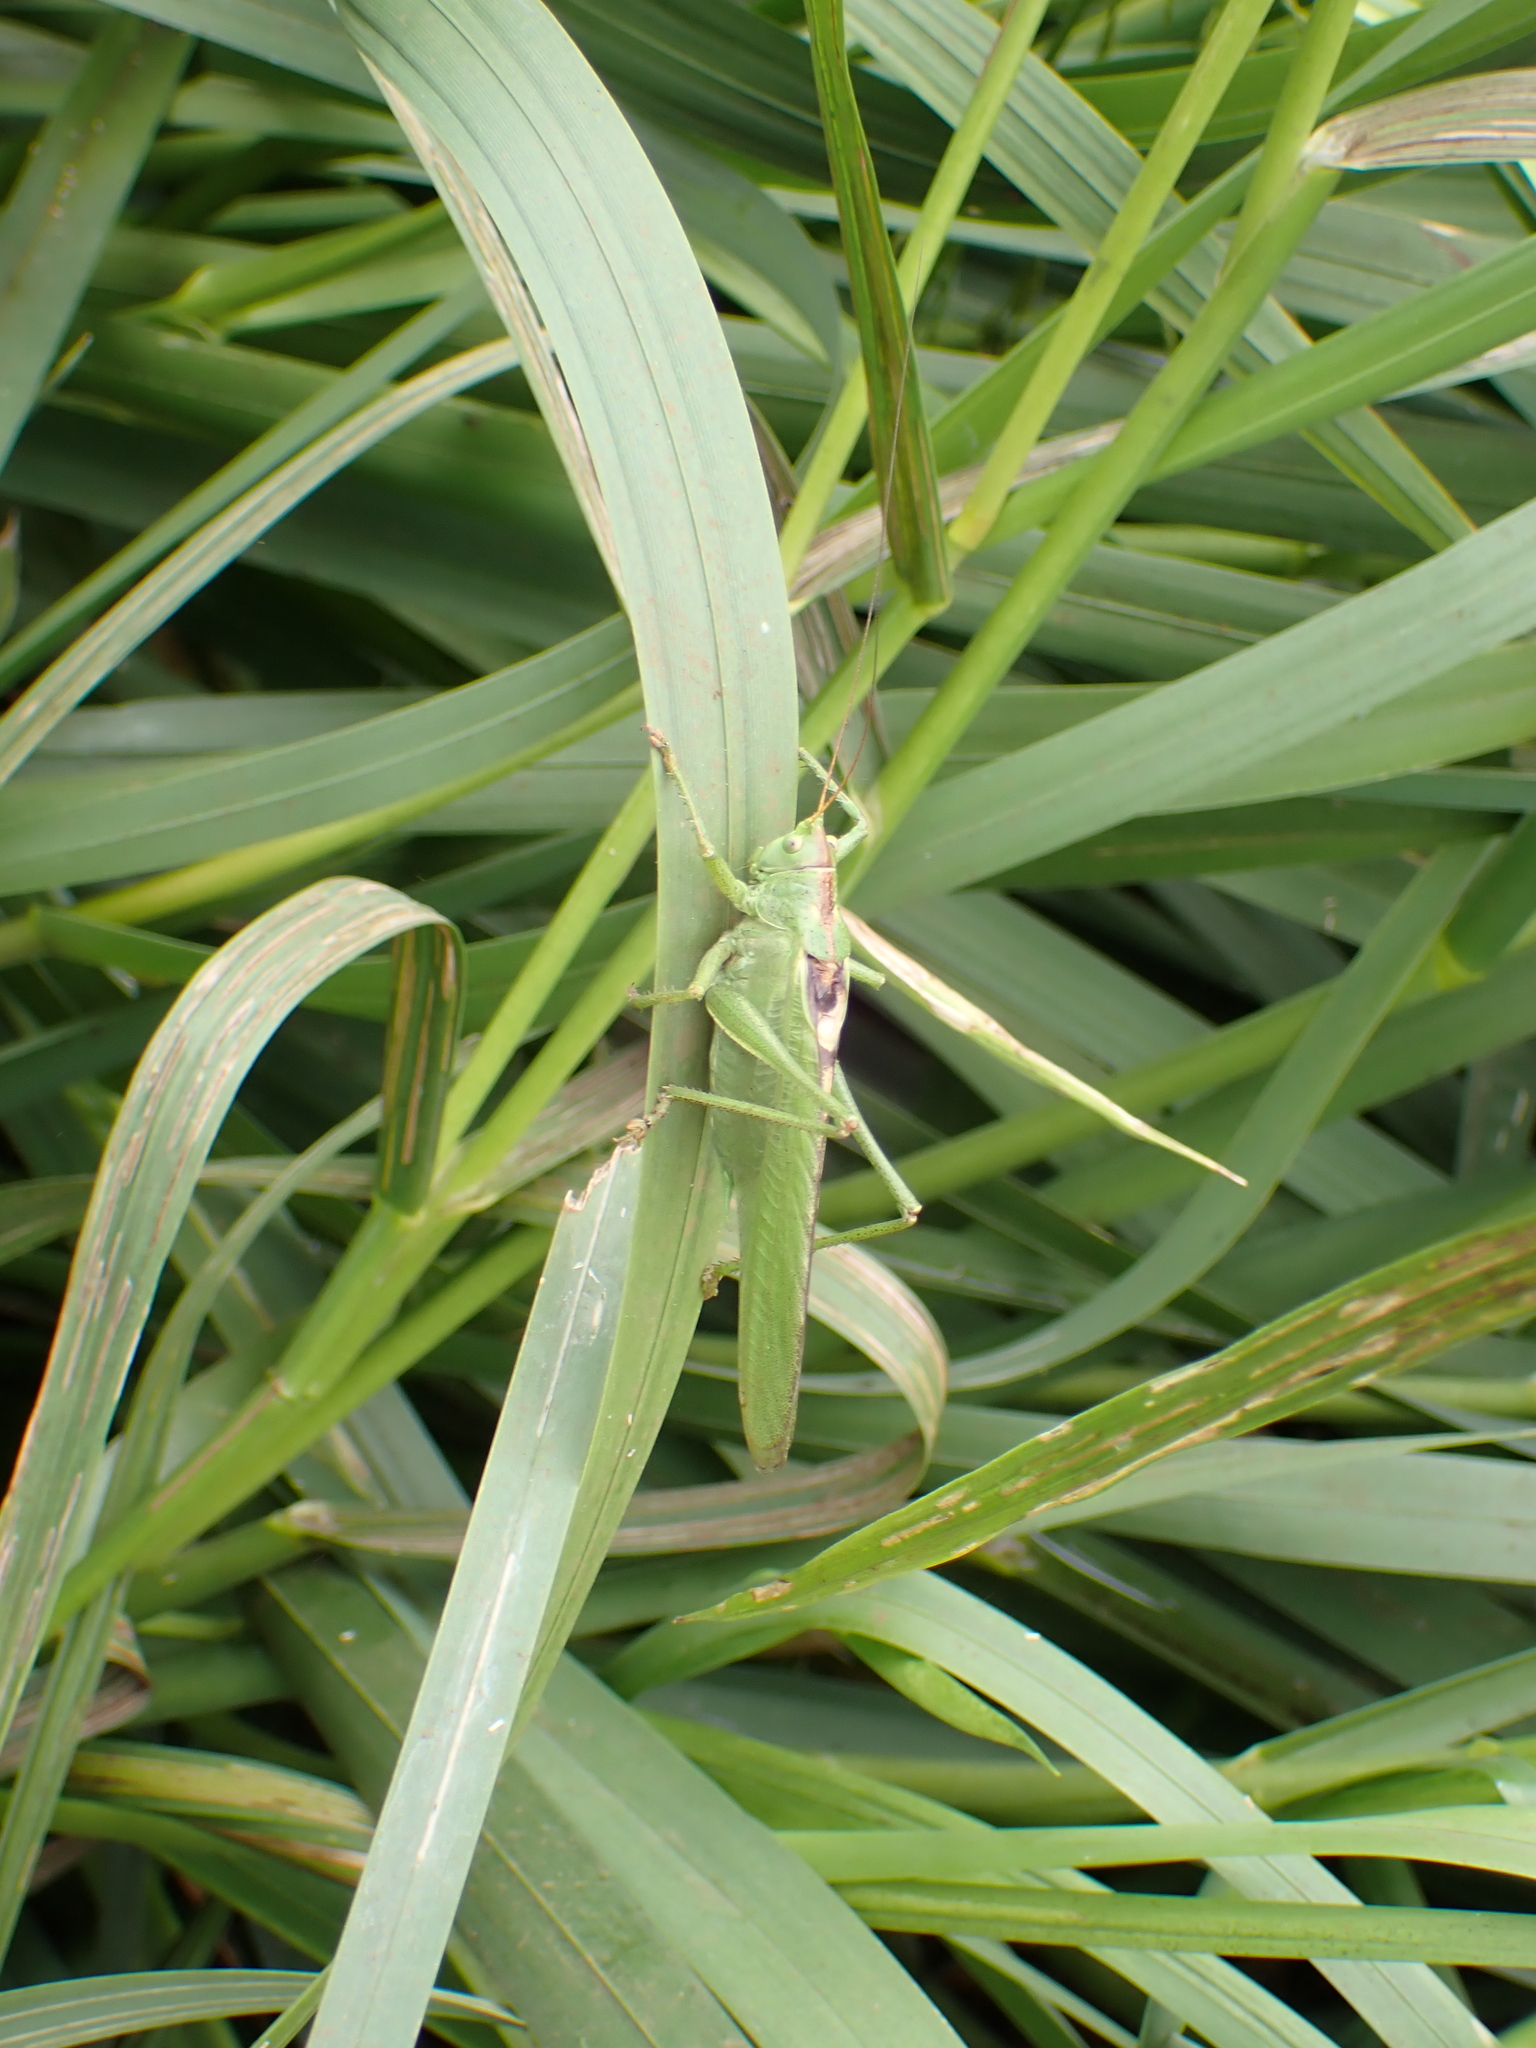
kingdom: Animalia
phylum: Arthropoda
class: Insecta
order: Orthoptera
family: Tettigoniidae
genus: Tettigonia
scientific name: Tettigonia viridissima
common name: Great green bush-cricket
